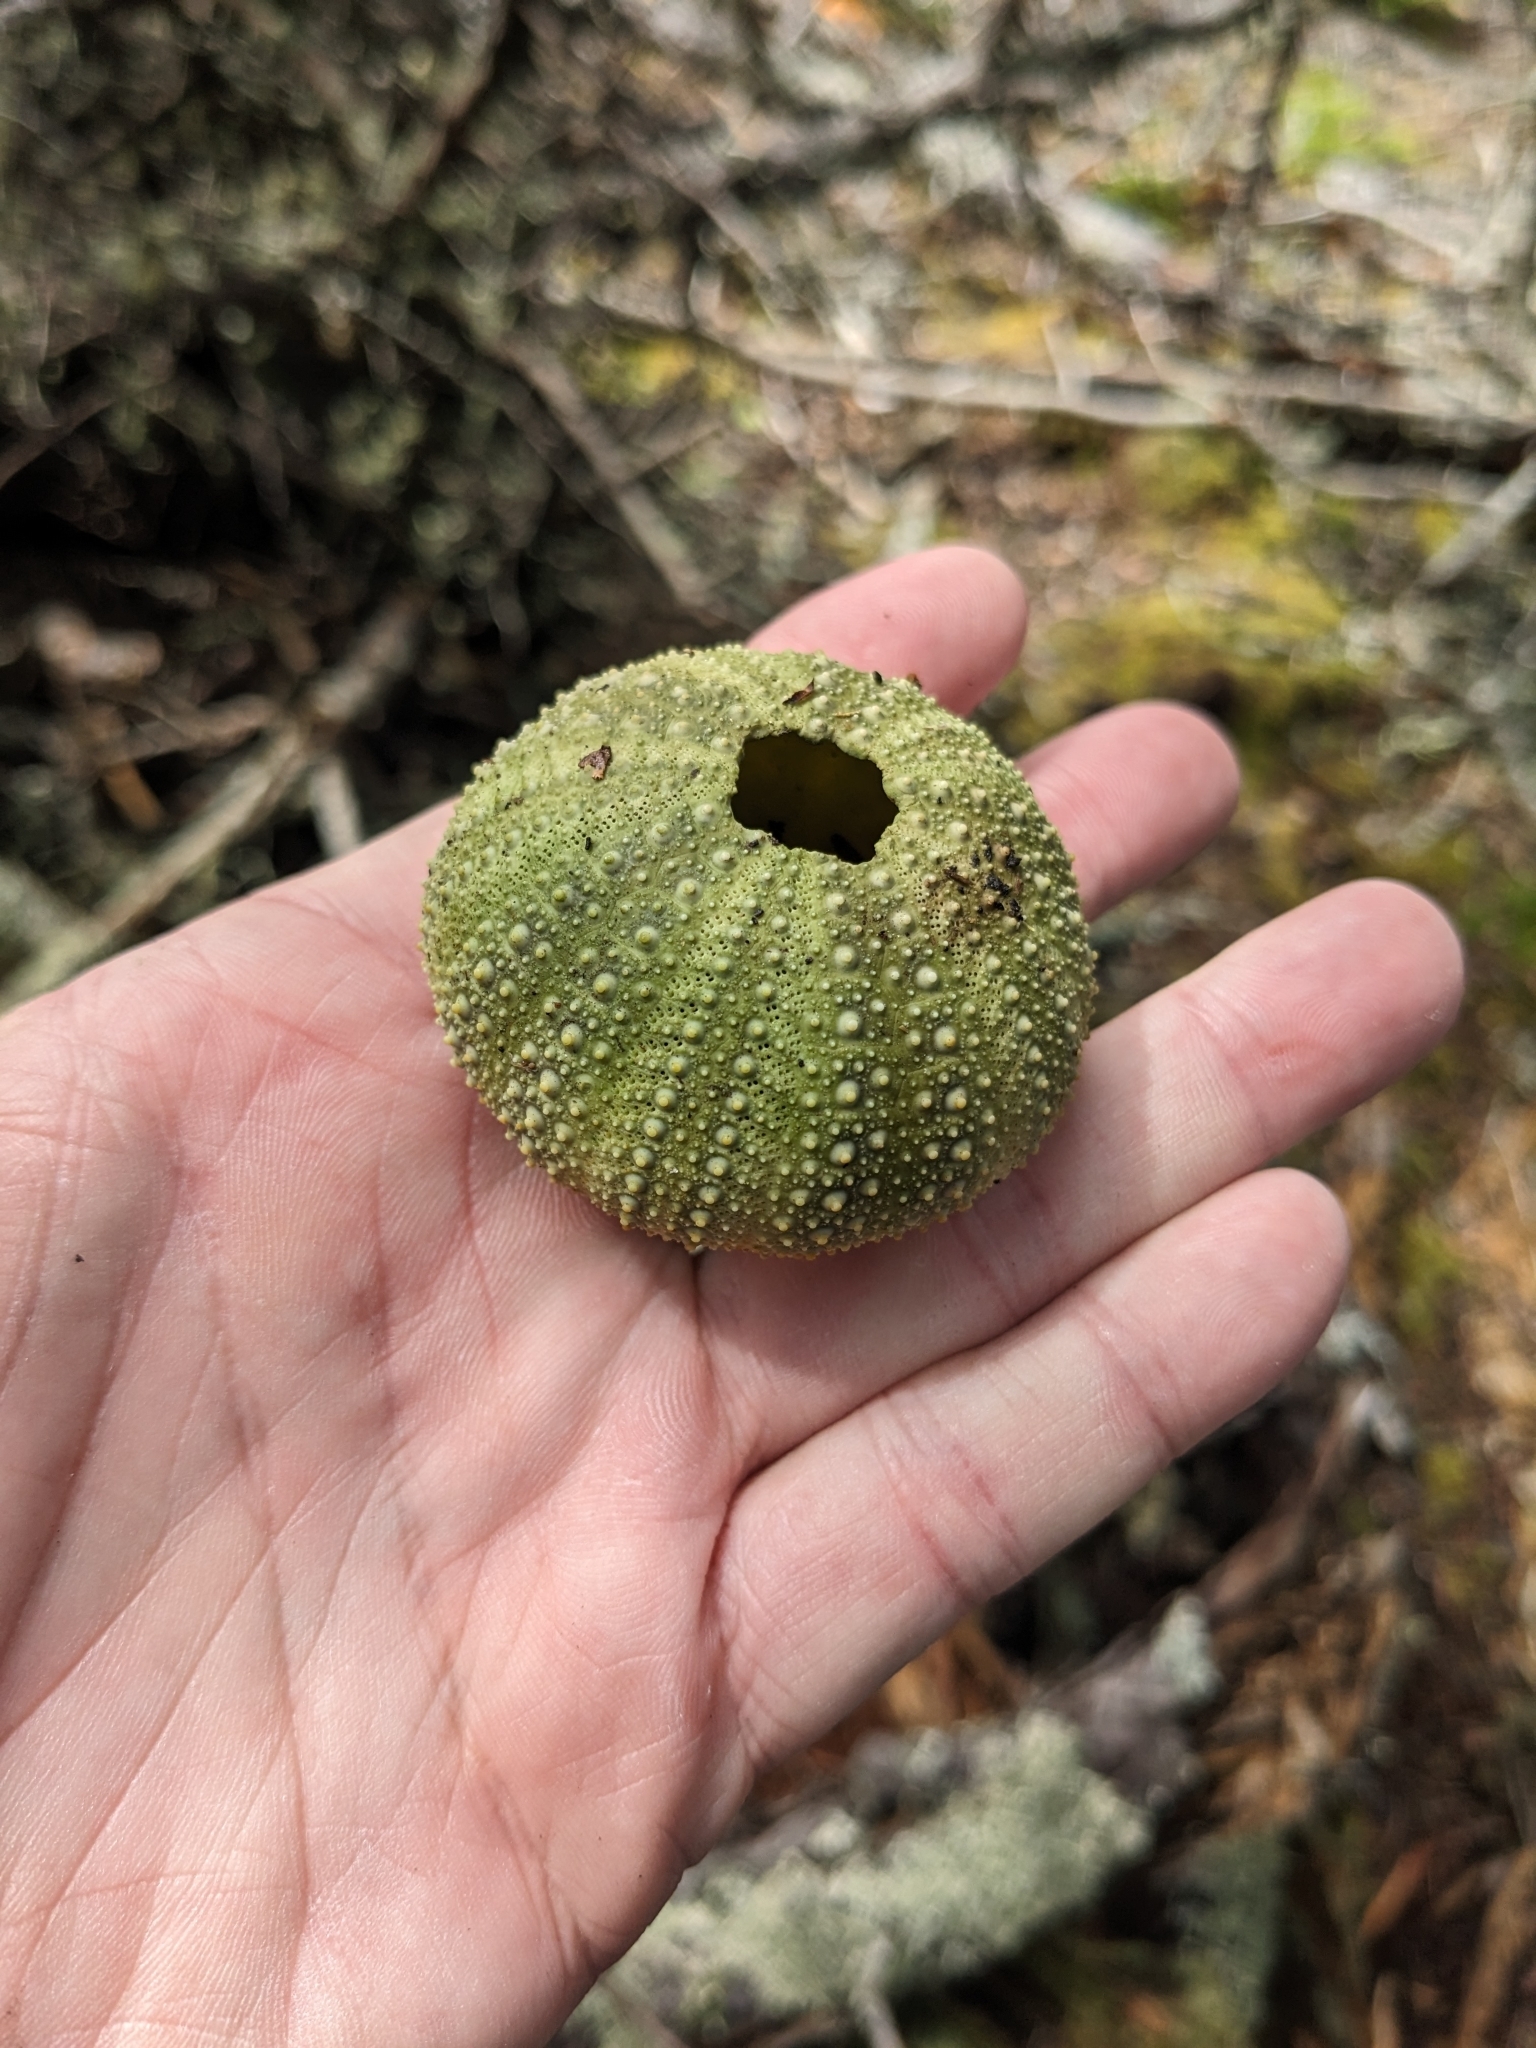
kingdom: Animalia
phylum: Echinodermata
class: Echinoidea
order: Camarodonta
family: Strongylocentrotidae
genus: Strongylocentrotus
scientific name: Strongylocentrotus droebachiensis
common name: Northern sea urchin
